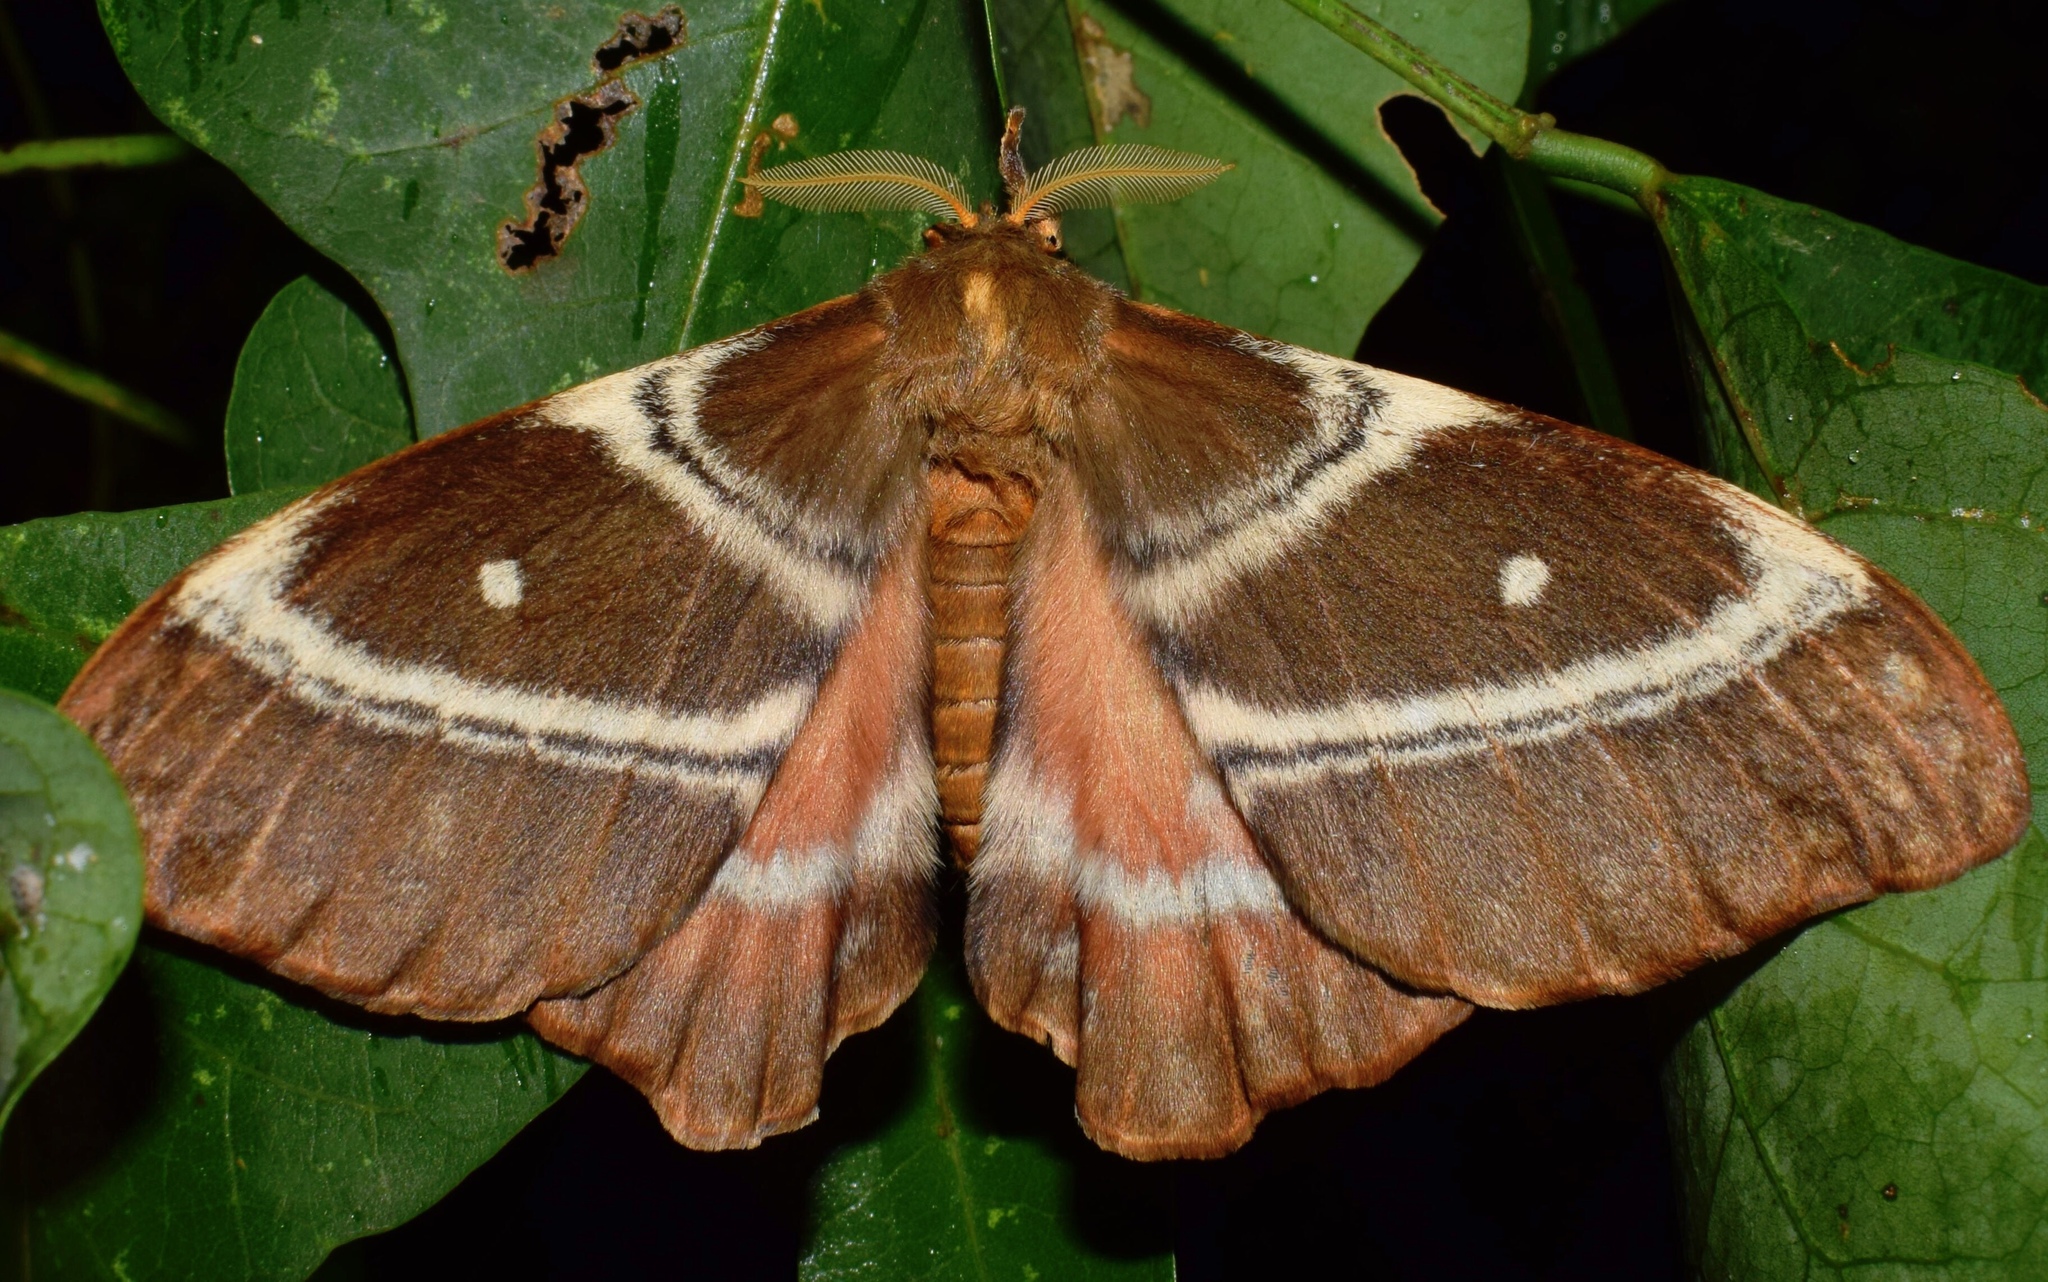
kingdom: Animalia
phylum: Arthropoda
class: Insecta
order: Lepidoptera
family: Saturniidae
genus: Urota
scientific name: Urota sinope
